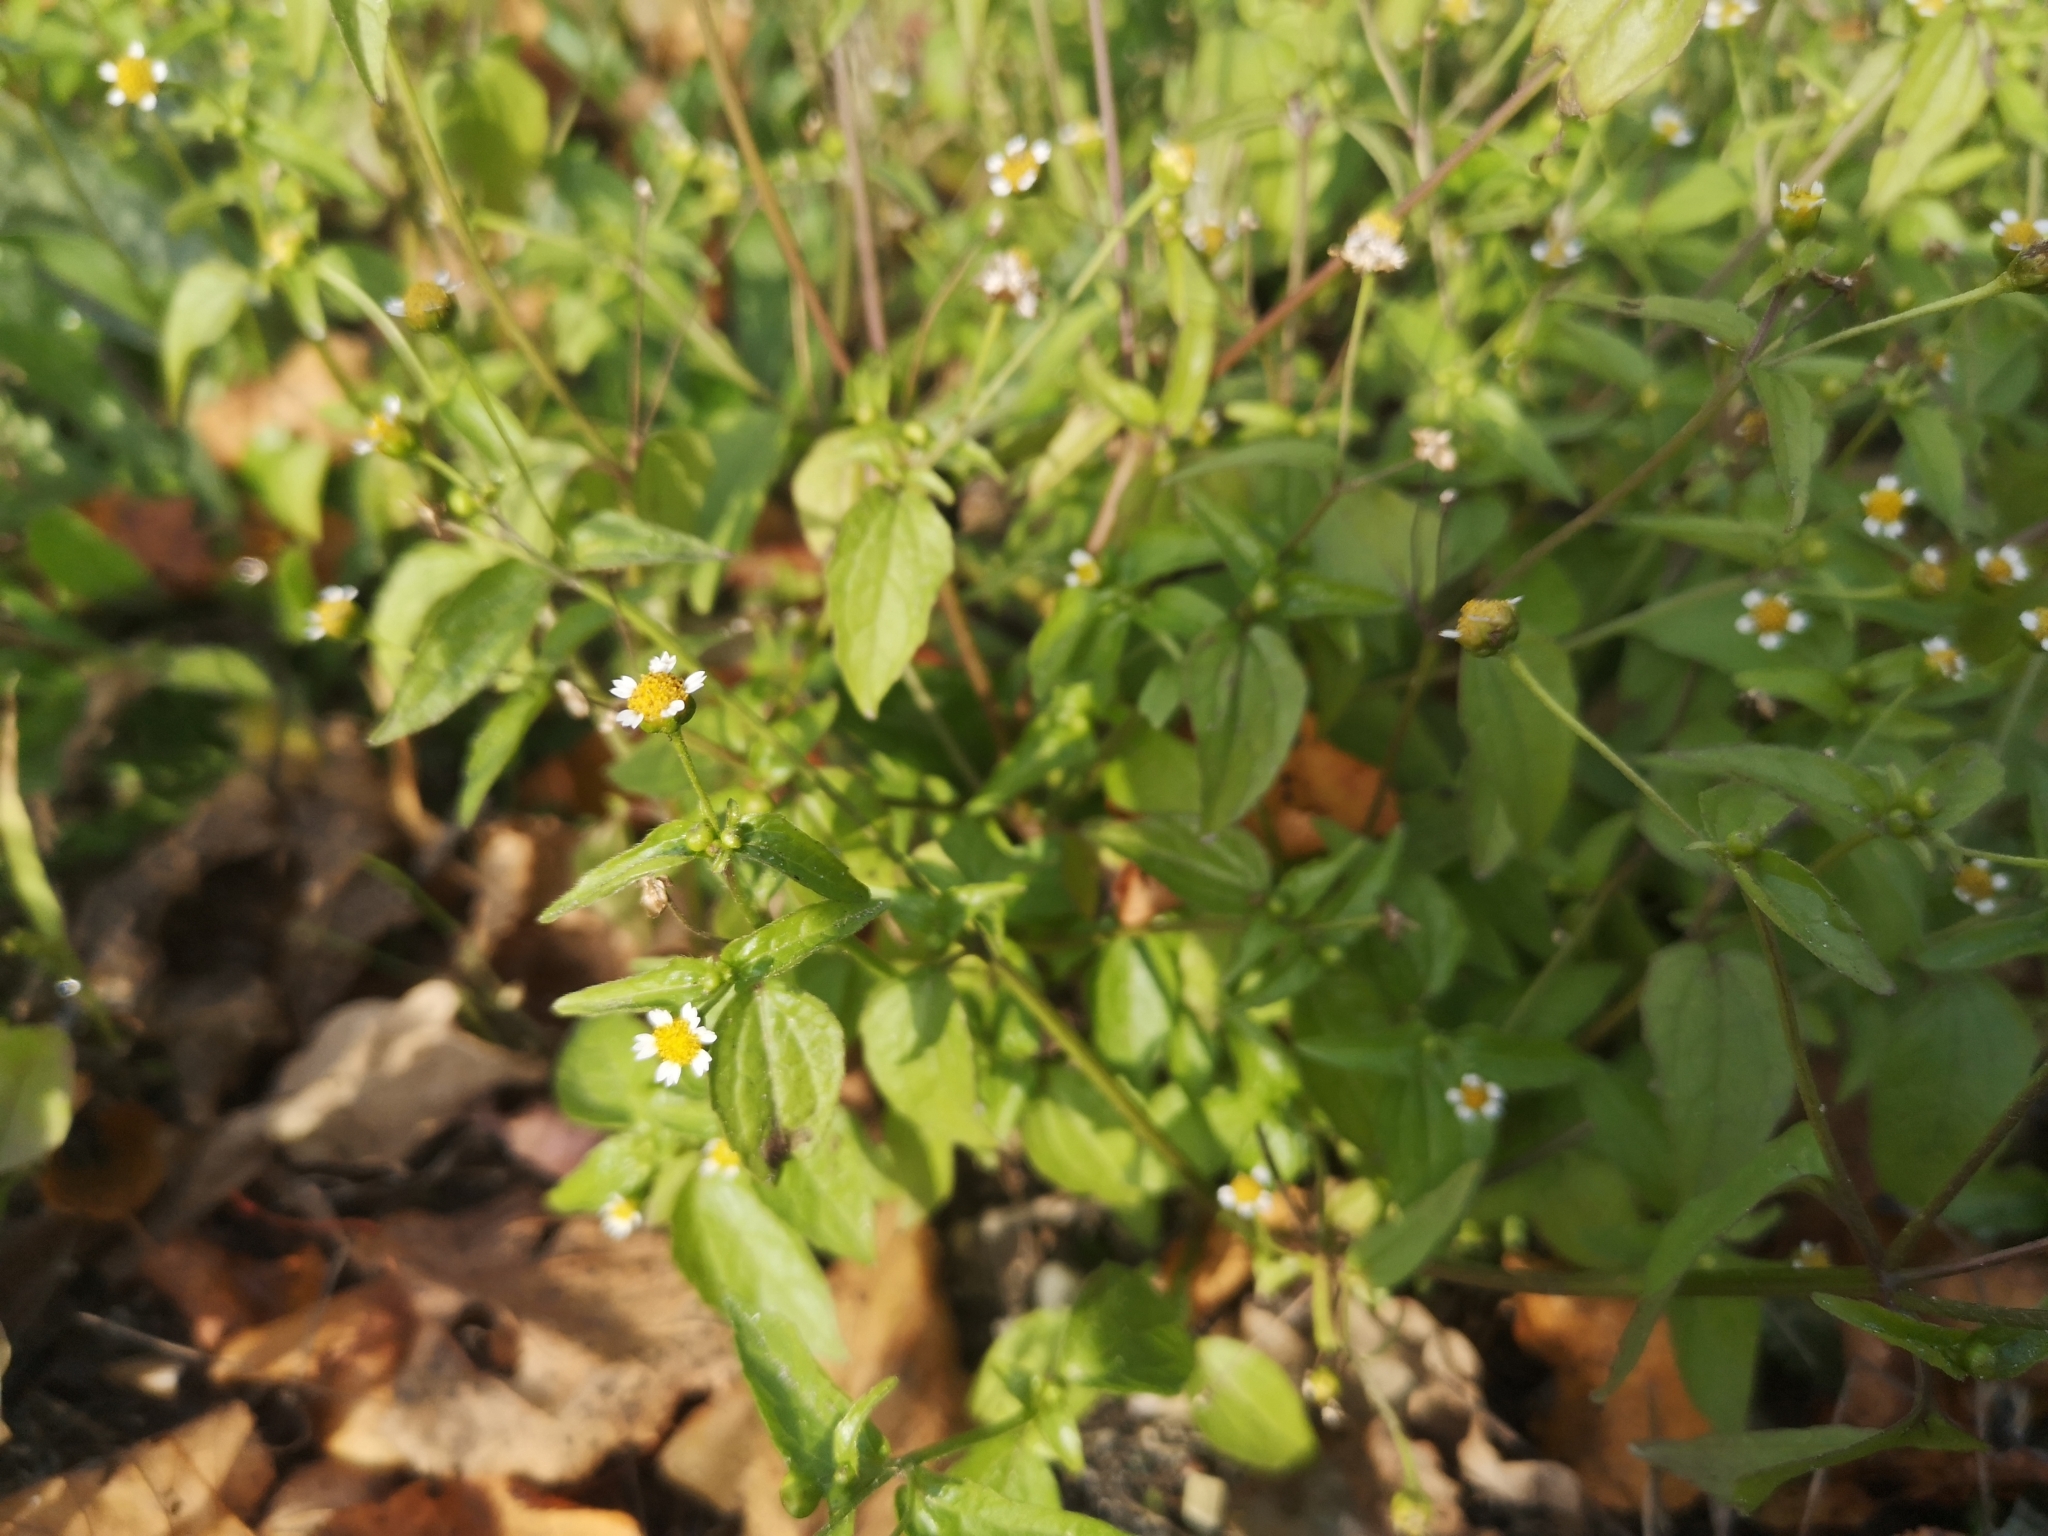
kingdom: Plantae
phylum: Tracheophyta
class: Magnoliopsida
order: Asterales
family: Asteraceae
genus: Galinsoga
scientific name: Galinsoga parviflora
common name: Gallant soldier
